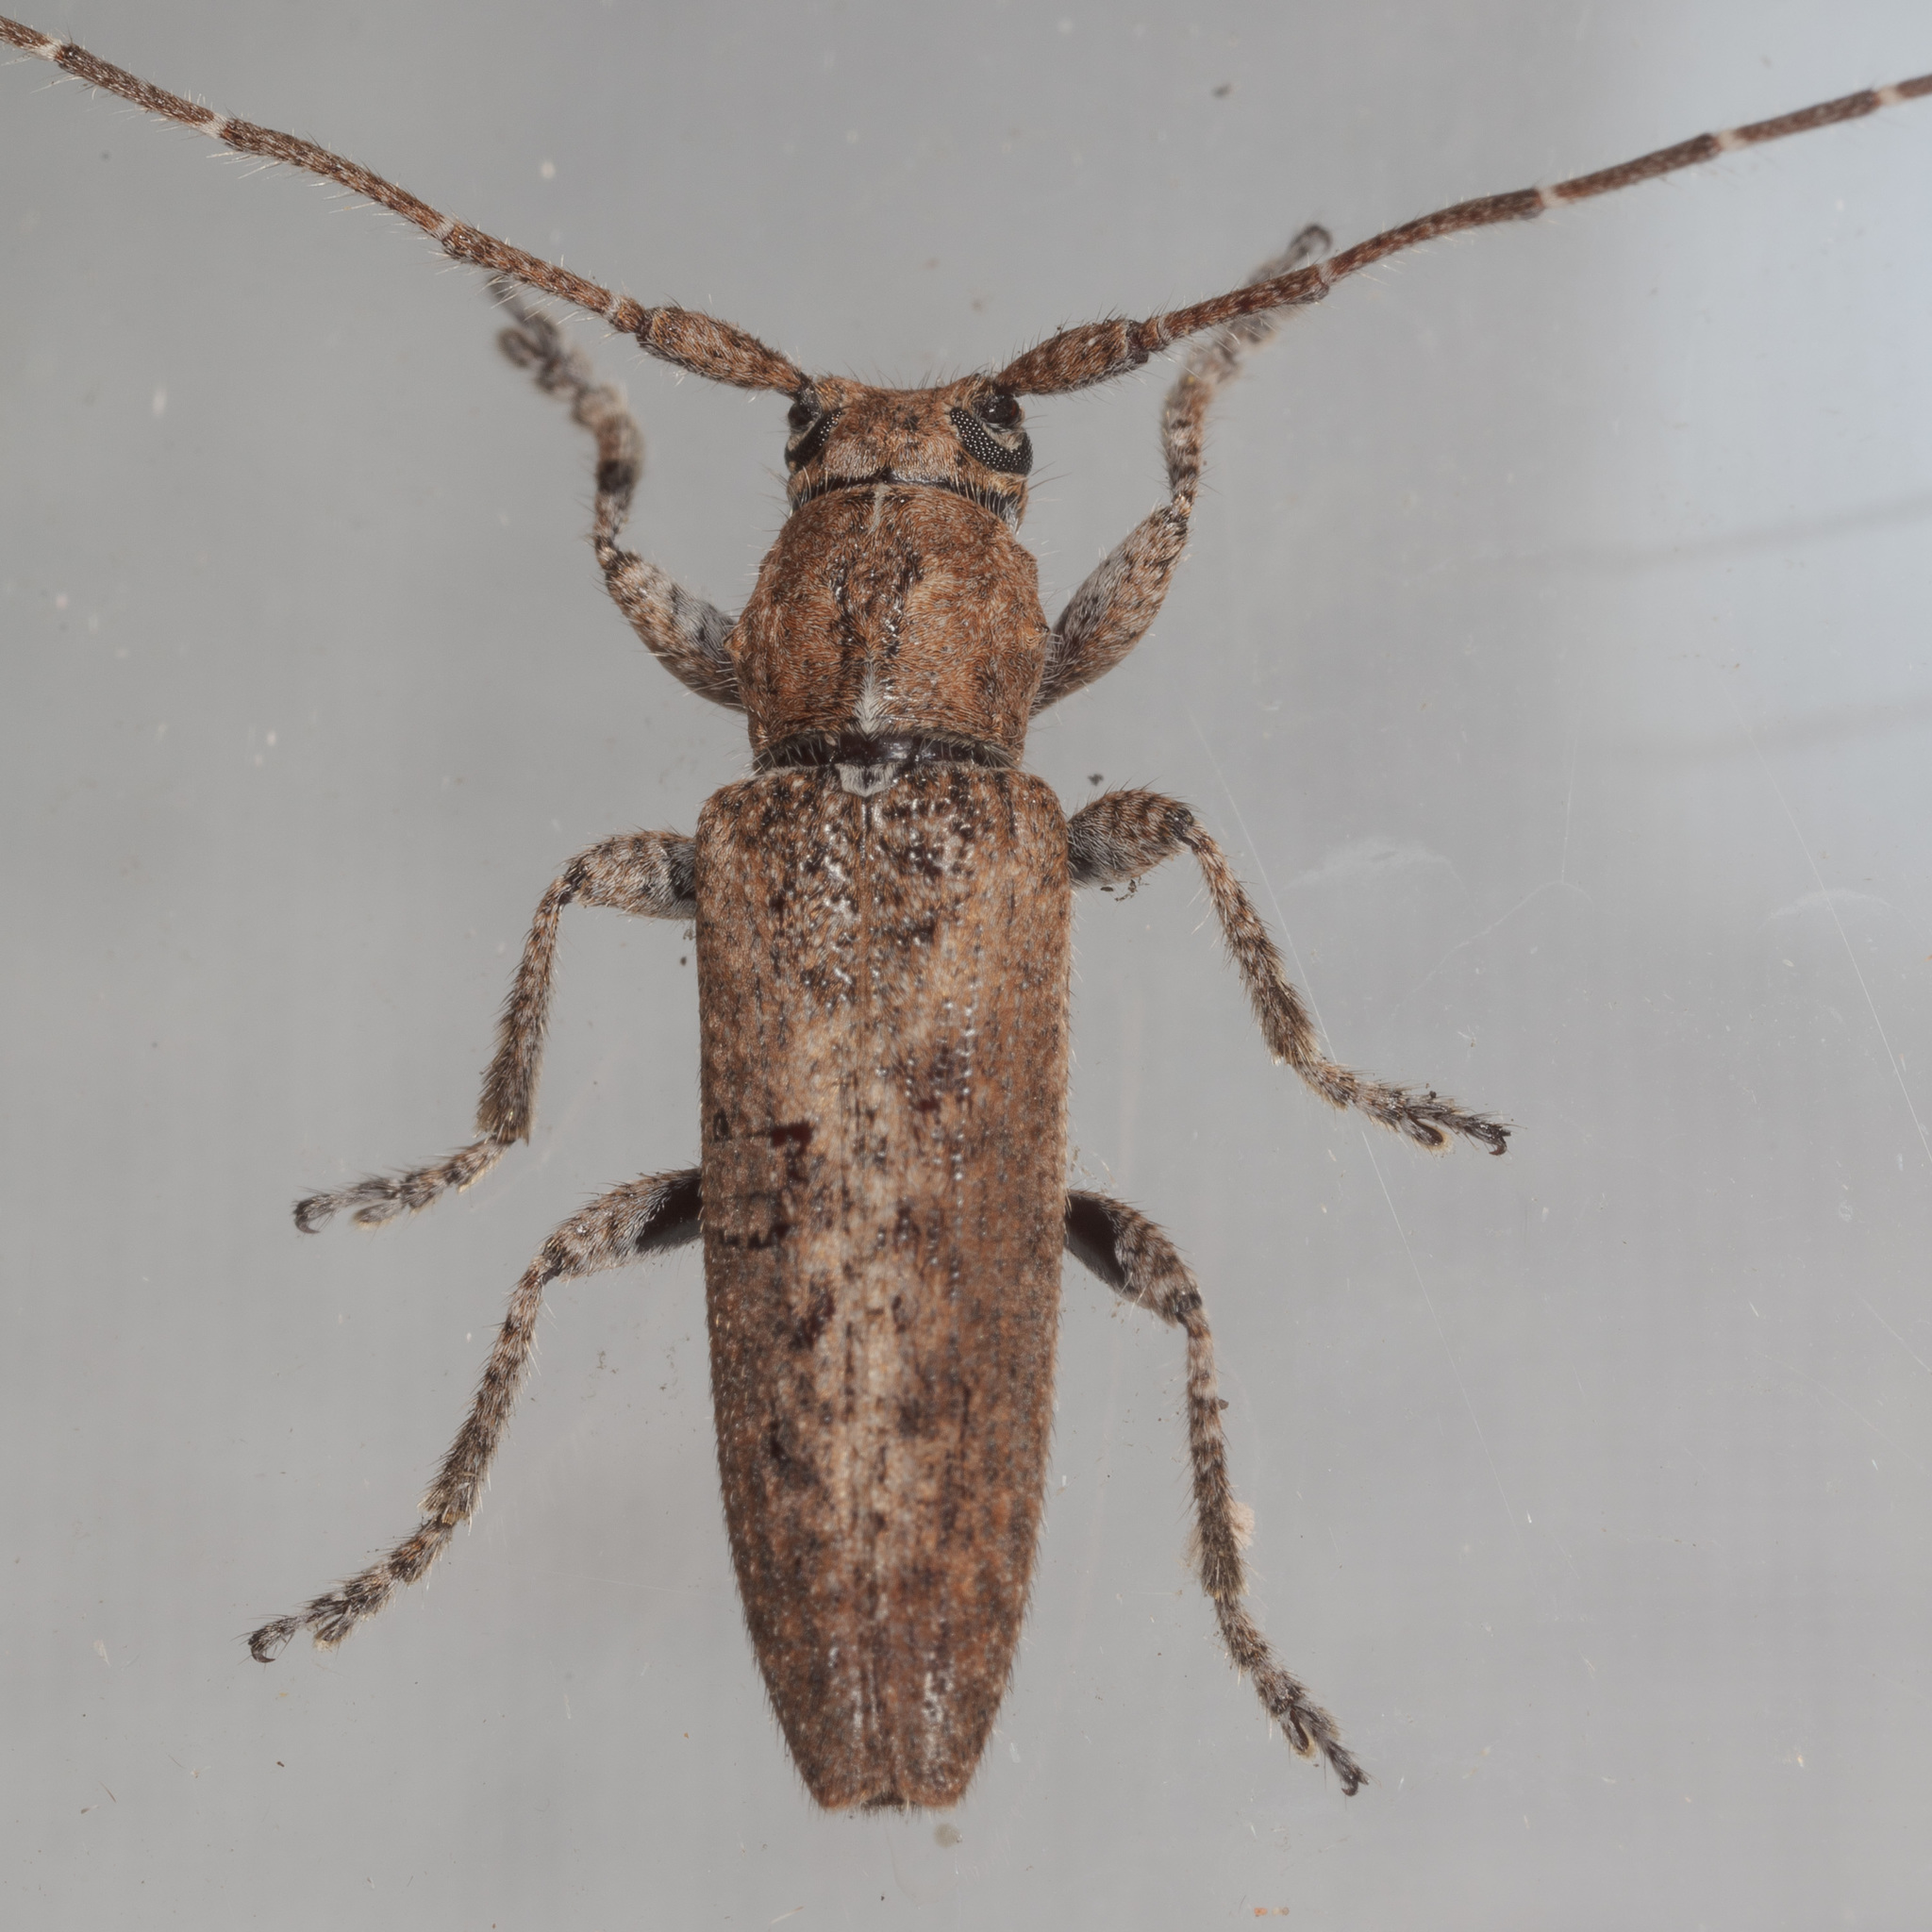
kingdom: Animalia
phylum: Arthropoda
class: Insecta
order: Coleoptera
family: Cerambycidae
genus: Ataxia
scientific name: Ataxia crypta
